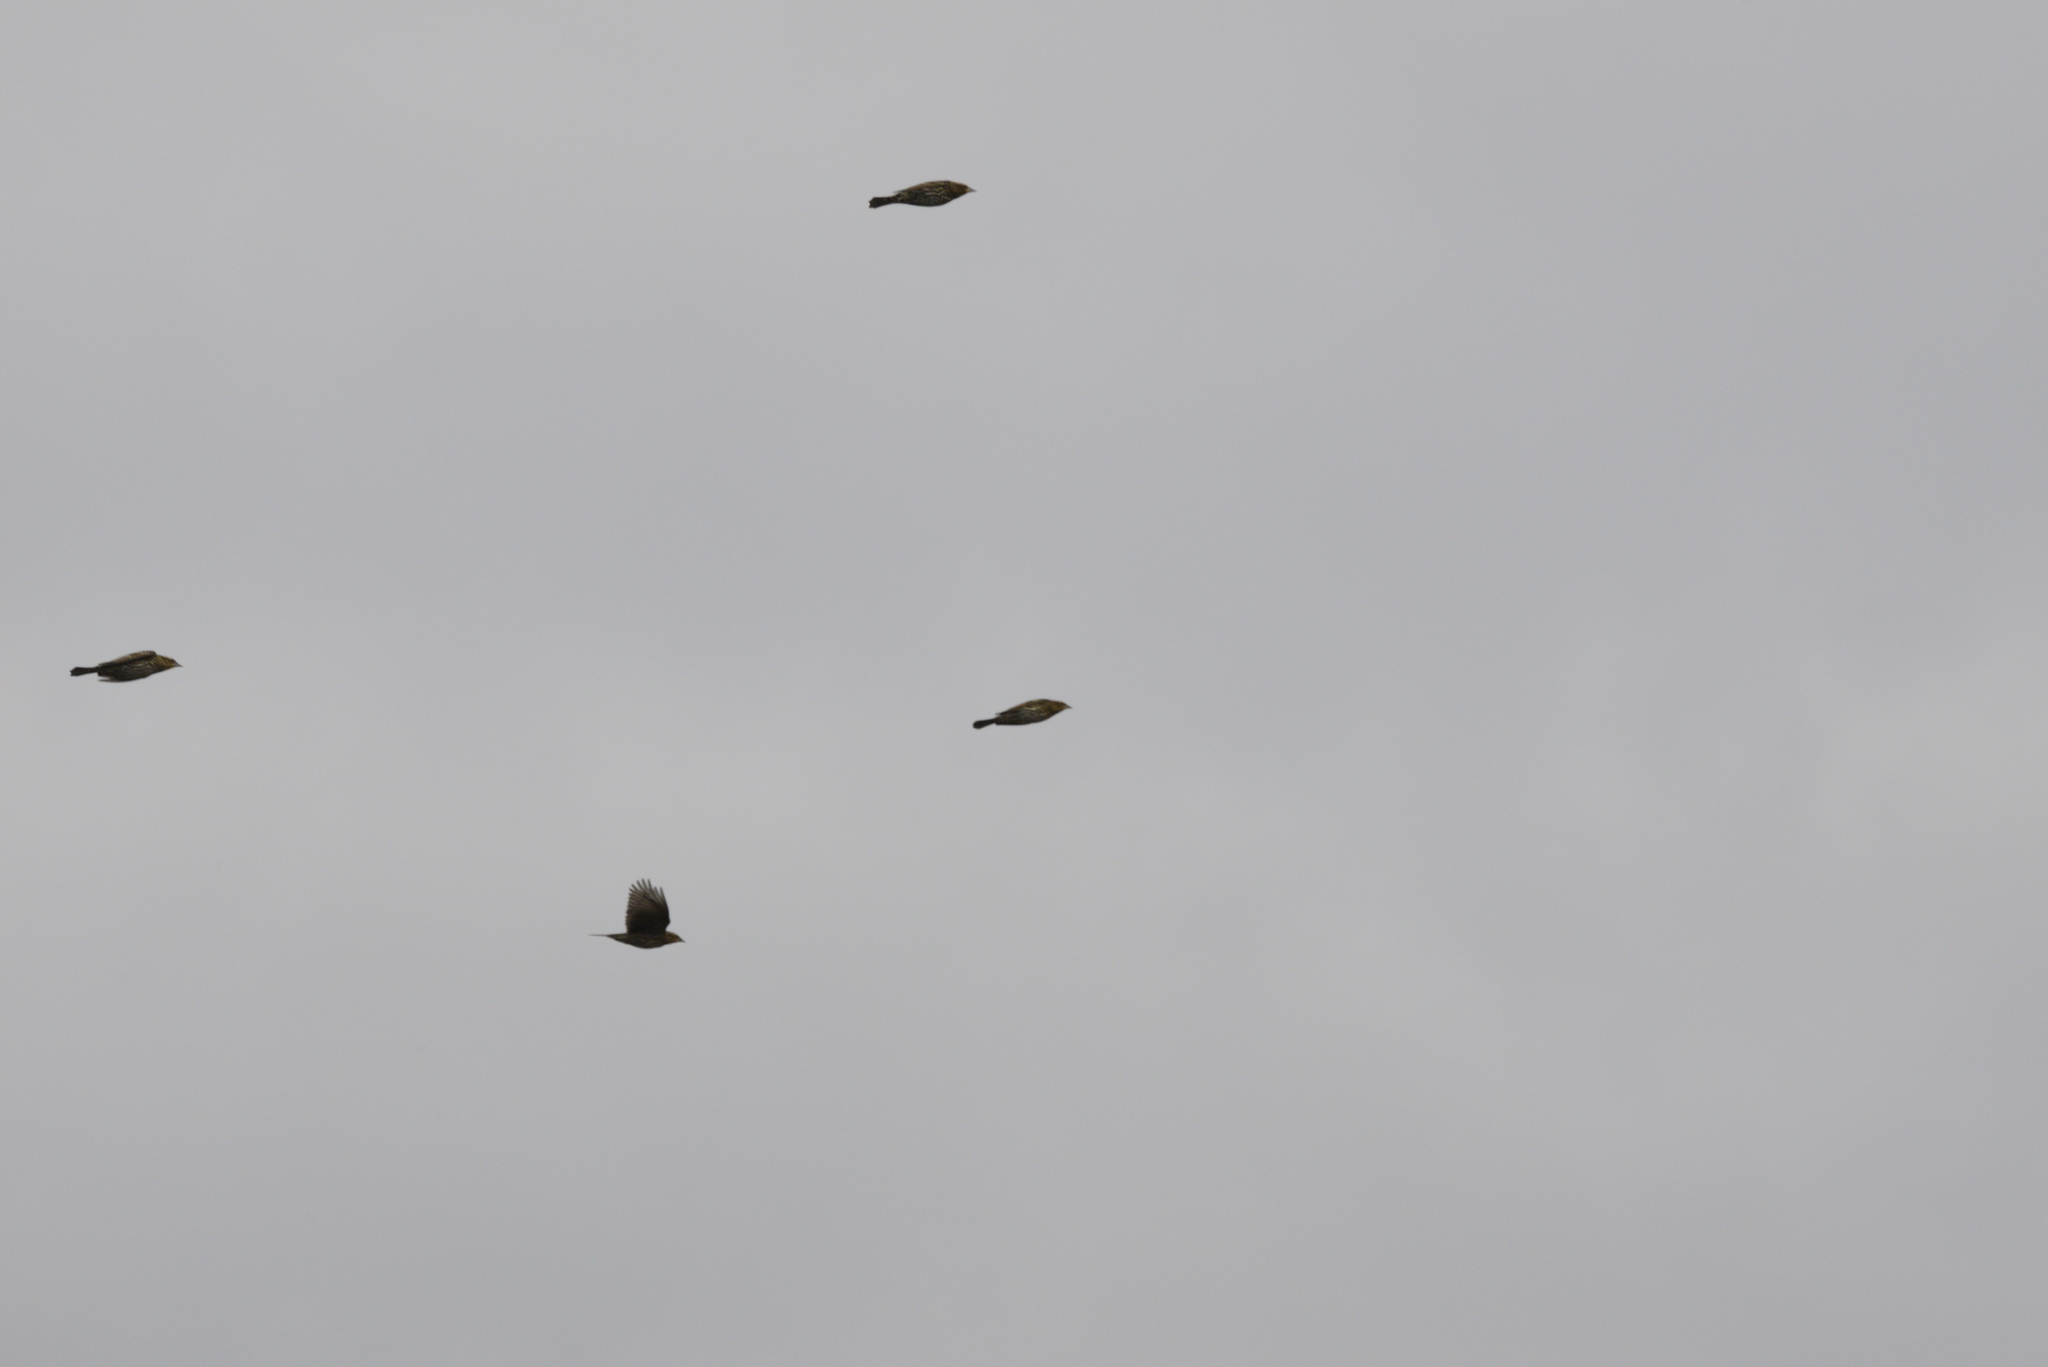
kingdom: Animalia
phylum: Chordata
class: Aves
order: Passeriformes
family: Icteridae
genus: Agelaius
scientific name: Agelaius phoeniceus
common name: Red-winged blackbird
